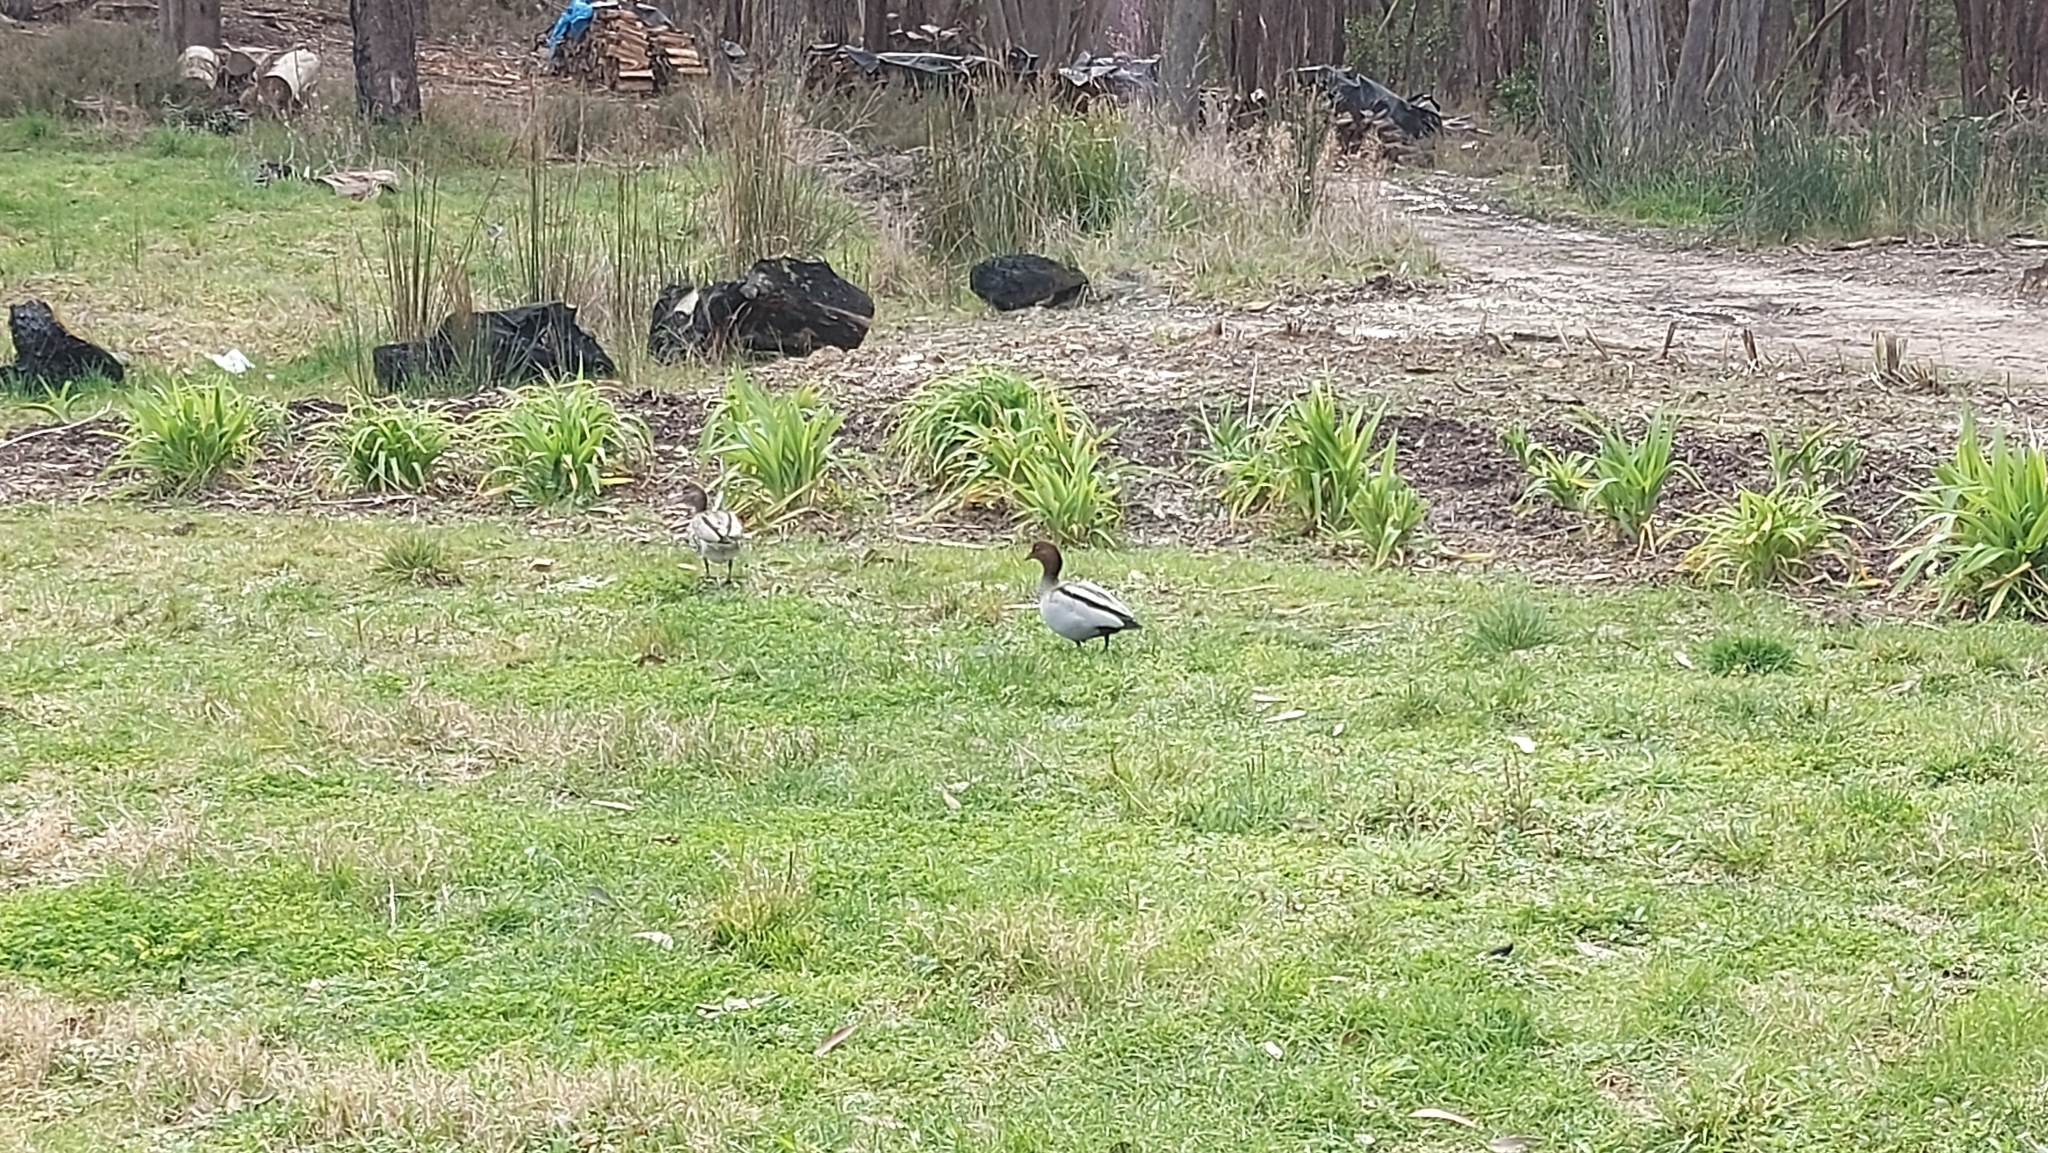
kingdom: Animalia
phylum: Chordata
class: Aves
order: Anseriformes
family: Anatidae
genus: Chenonetta
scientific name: Chenonetta jubata
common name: Maned duck
